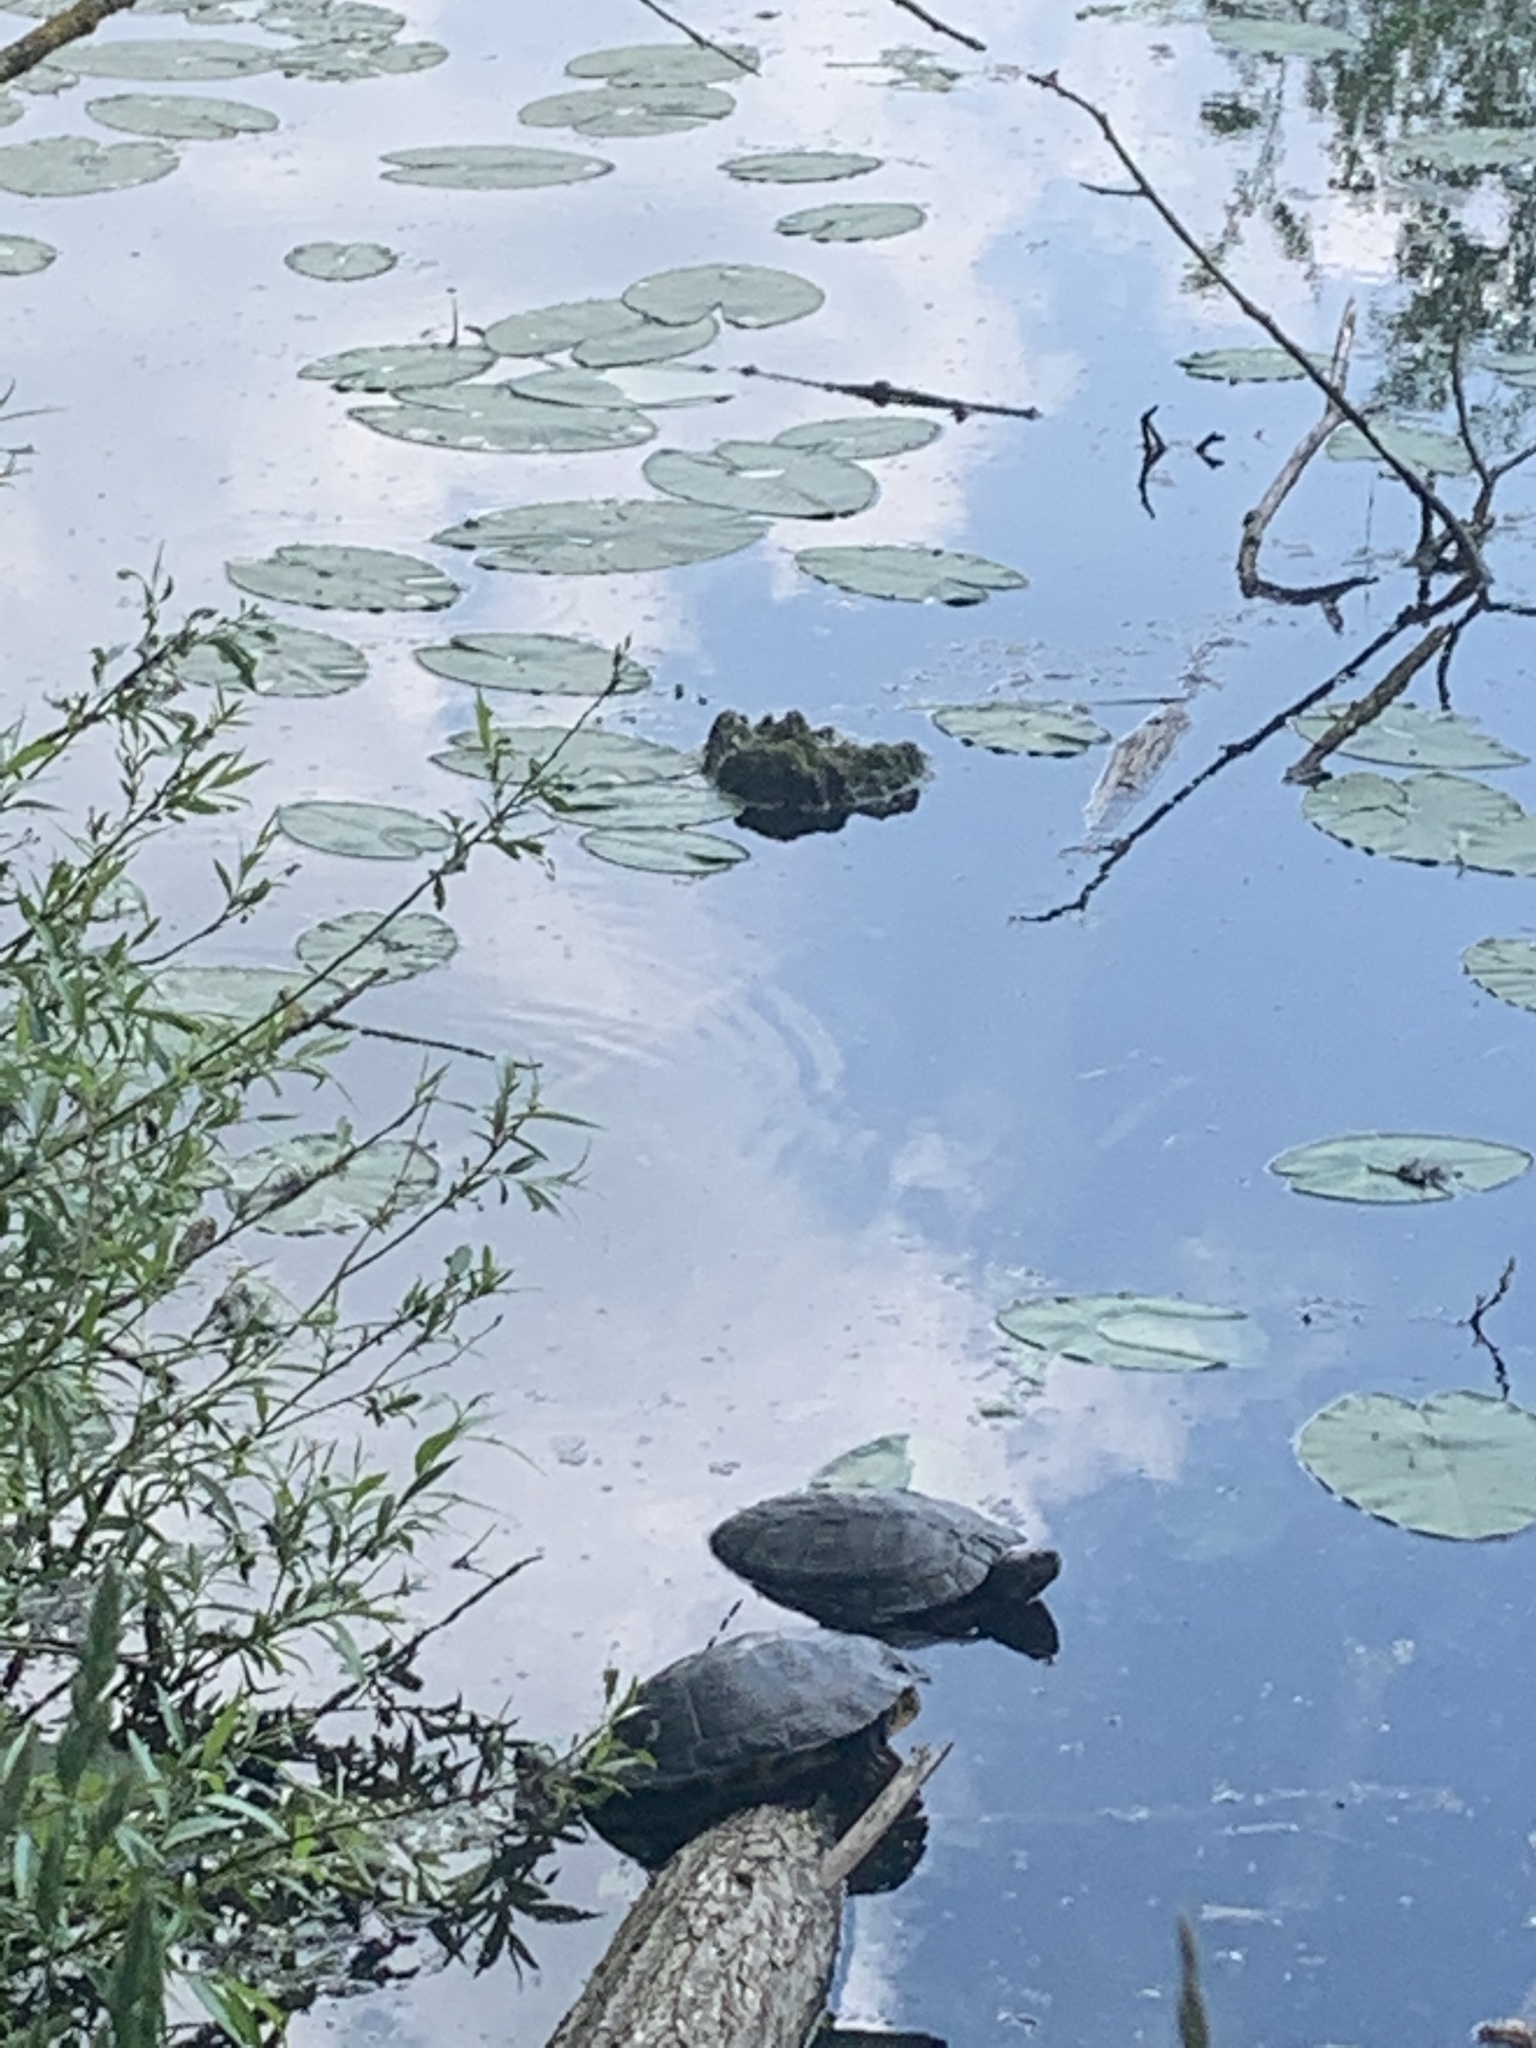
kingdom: Animalia
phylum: Chordata
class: Testudines
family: Emydidae
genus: Trachemys
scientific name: Trachemys scripta
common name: Slider
